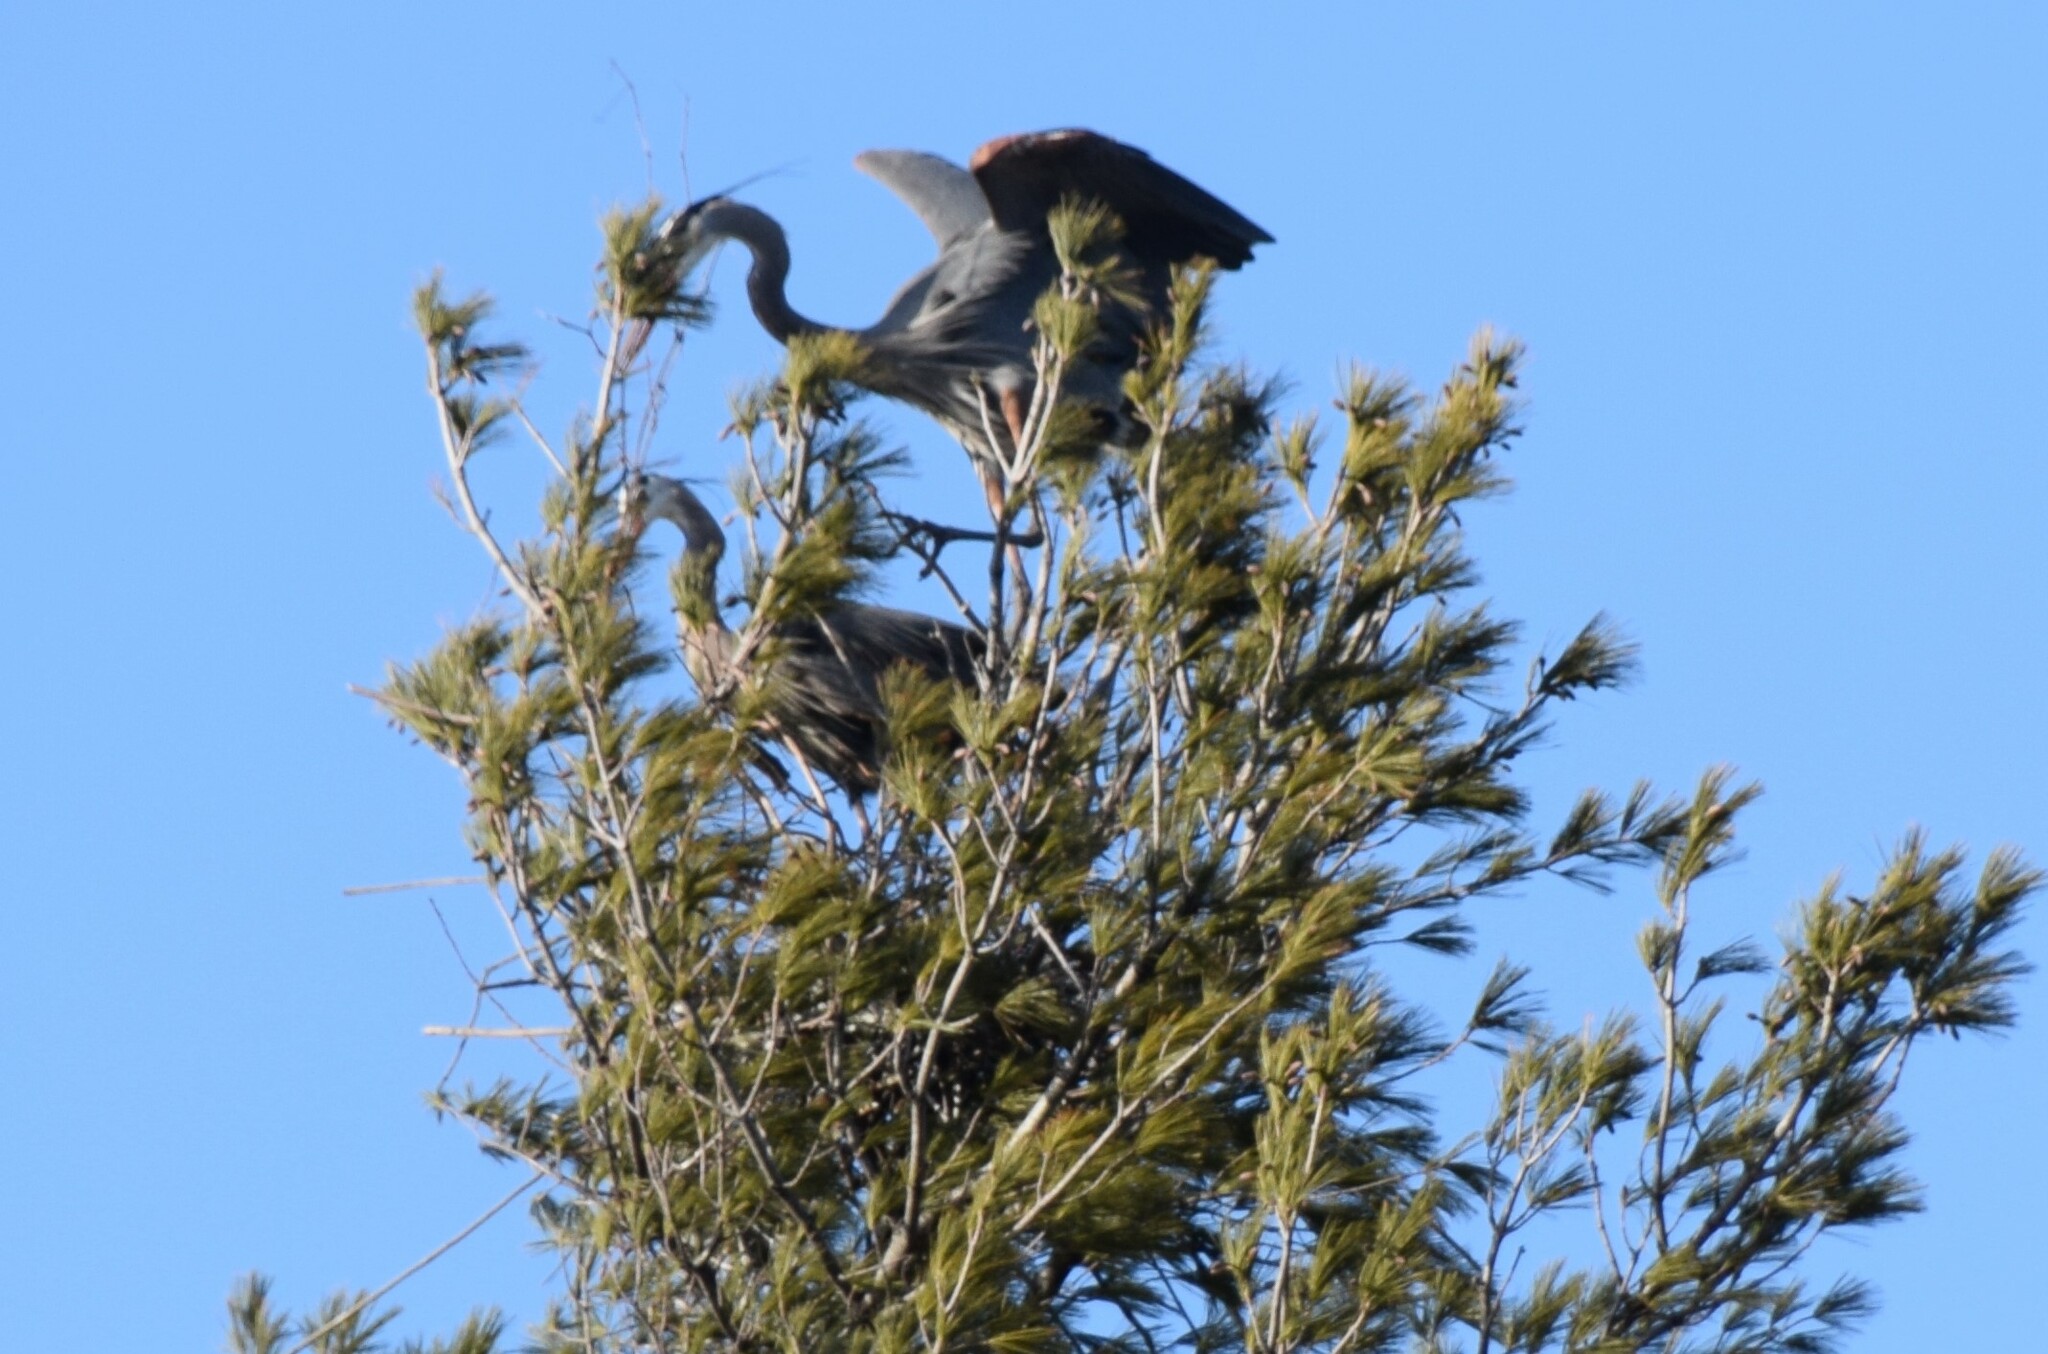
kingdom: Animalia
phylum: Chordata
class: Aves
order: Pelecaniformes
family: Ardeidae
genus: Ardea
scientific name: Ardea herodias
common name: Great blue heron
